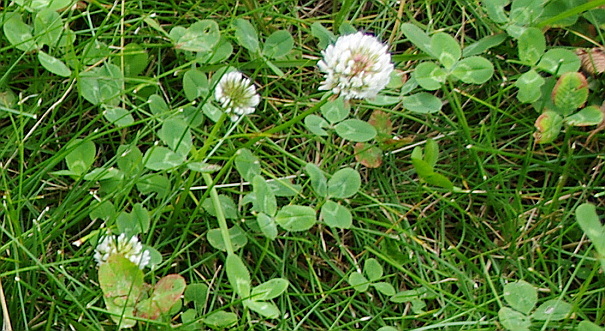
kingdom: Plantae
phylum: Tracheophyta
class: Magnoliopsida
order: Fabales
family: Fabaceae
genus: Trifolium
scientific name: Trifolium repens
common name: White clover
